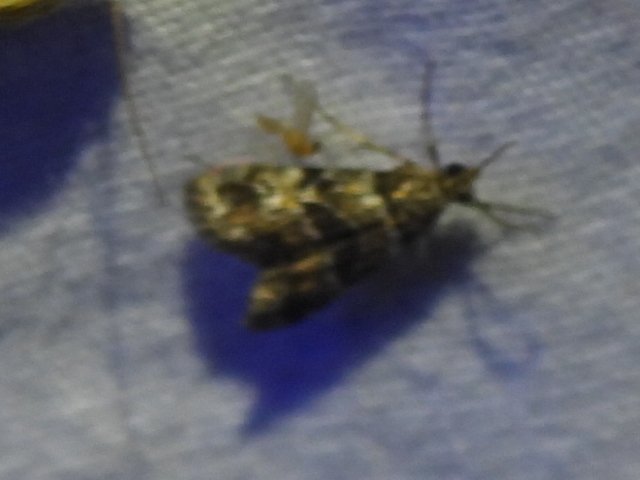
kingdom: Animalia
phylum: Arthropoda
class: Insecta
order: Lepidoptera
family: Crambidae
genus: Elophila
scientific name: Elophila obliteralis
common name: Waterlily leafcutter moth
